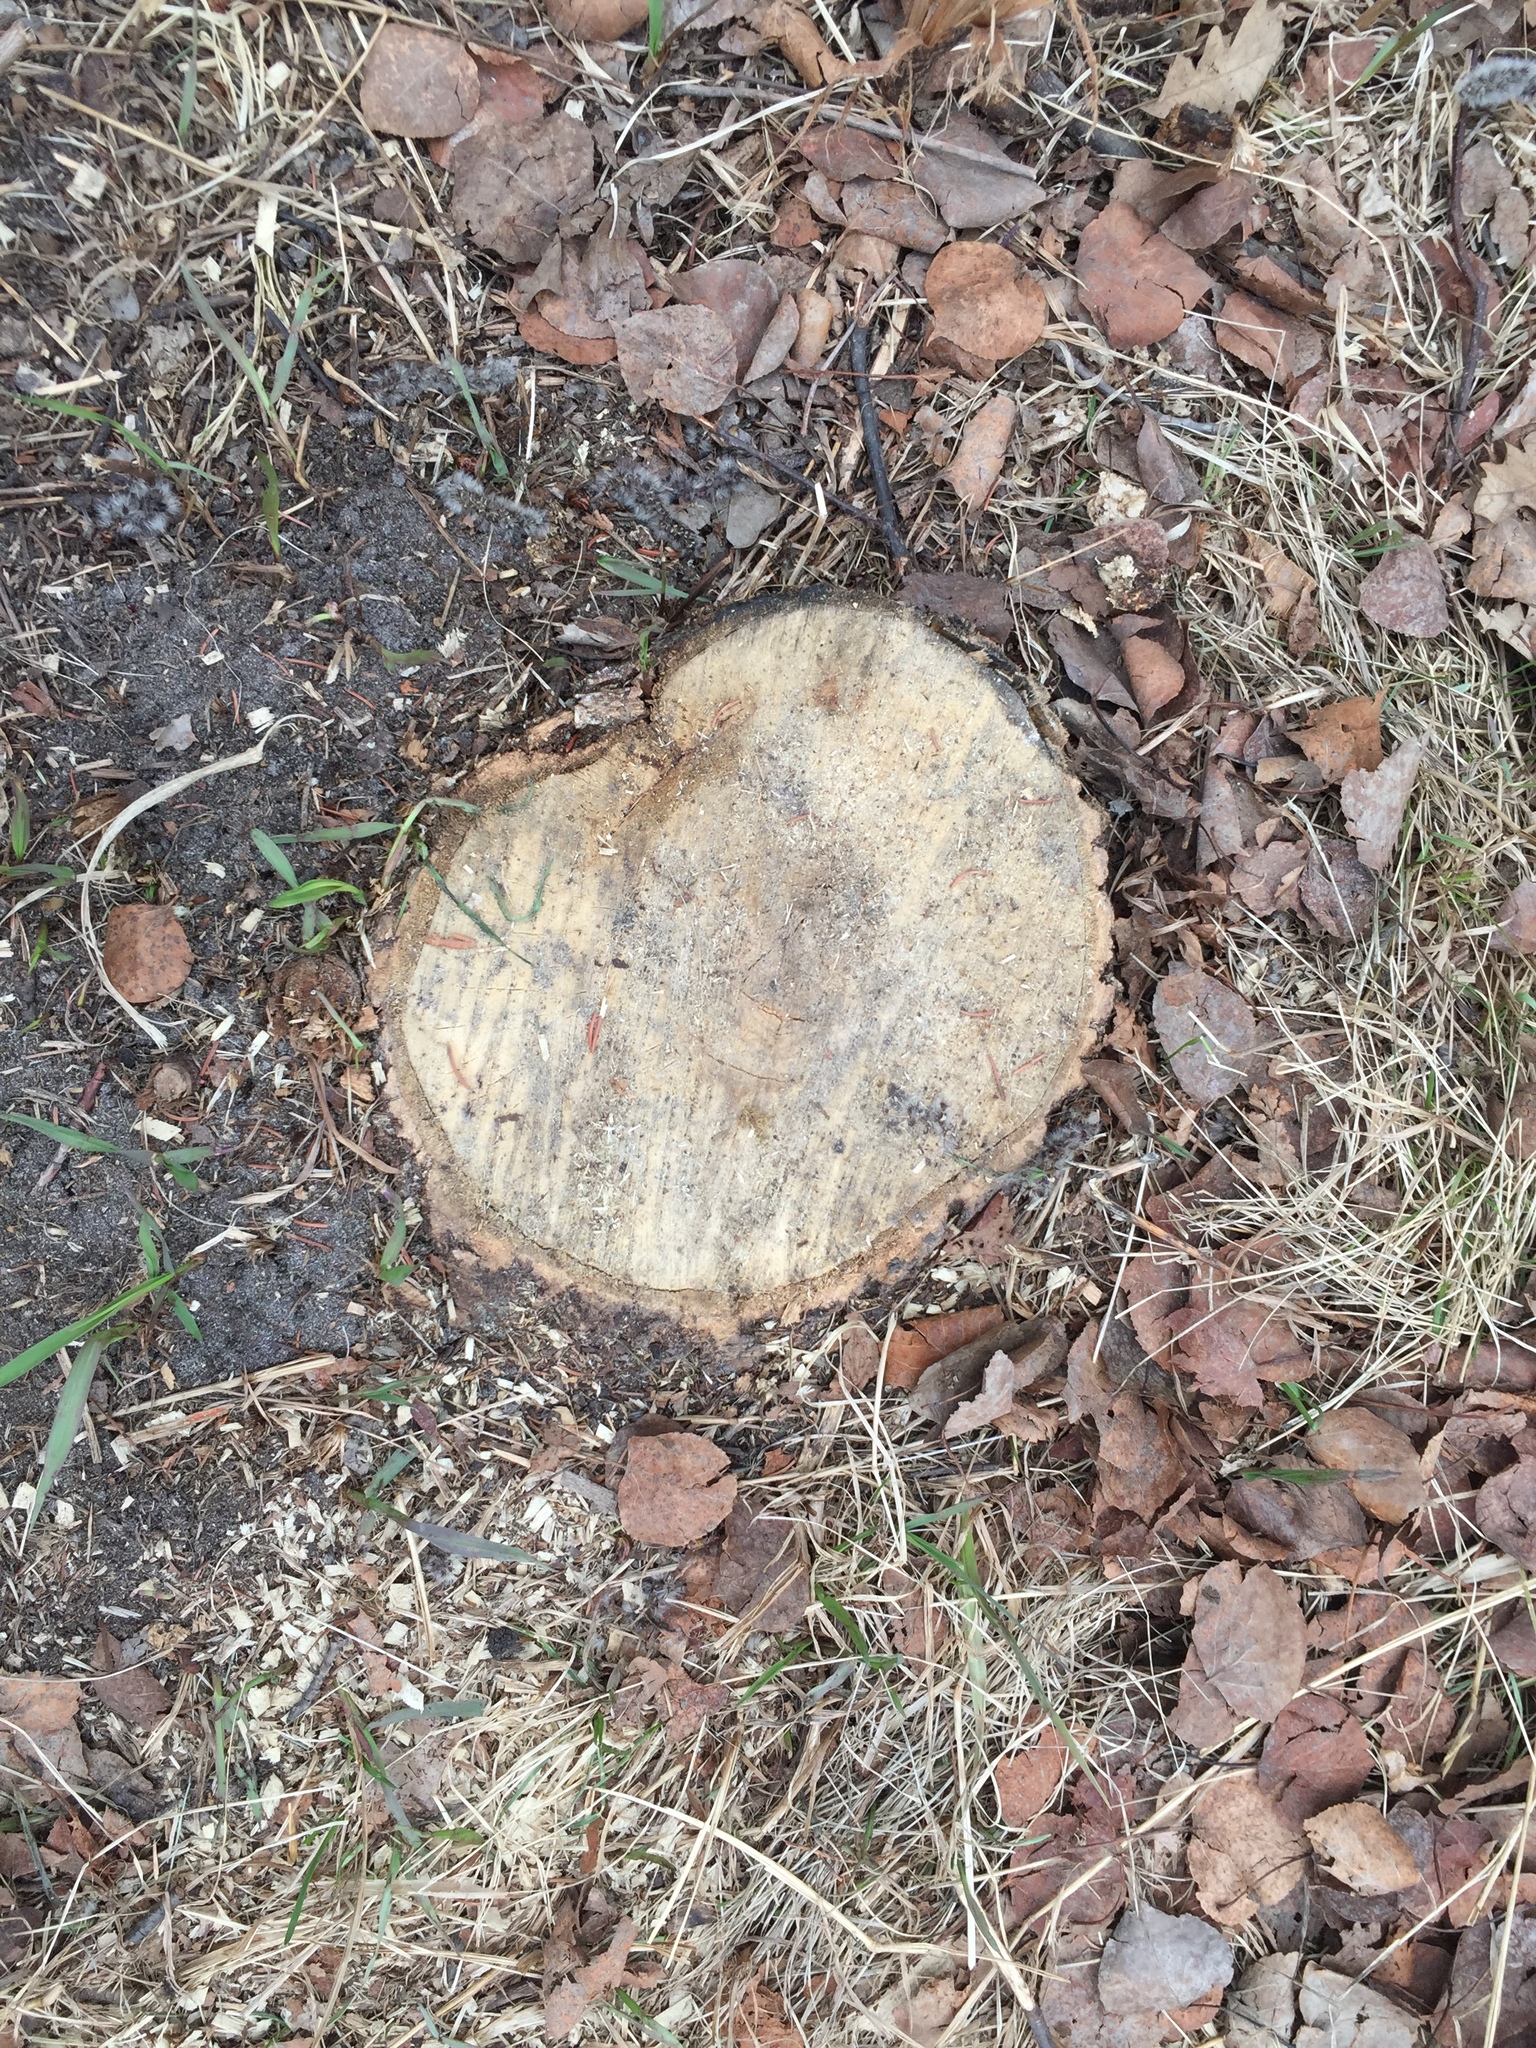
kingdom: Plantae
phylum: Tracheophyta
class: Magnoliopsida
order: Malpighiales
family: Salicaceae
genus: Populus
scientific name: Populus tremuloides
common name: Quaking aspen
